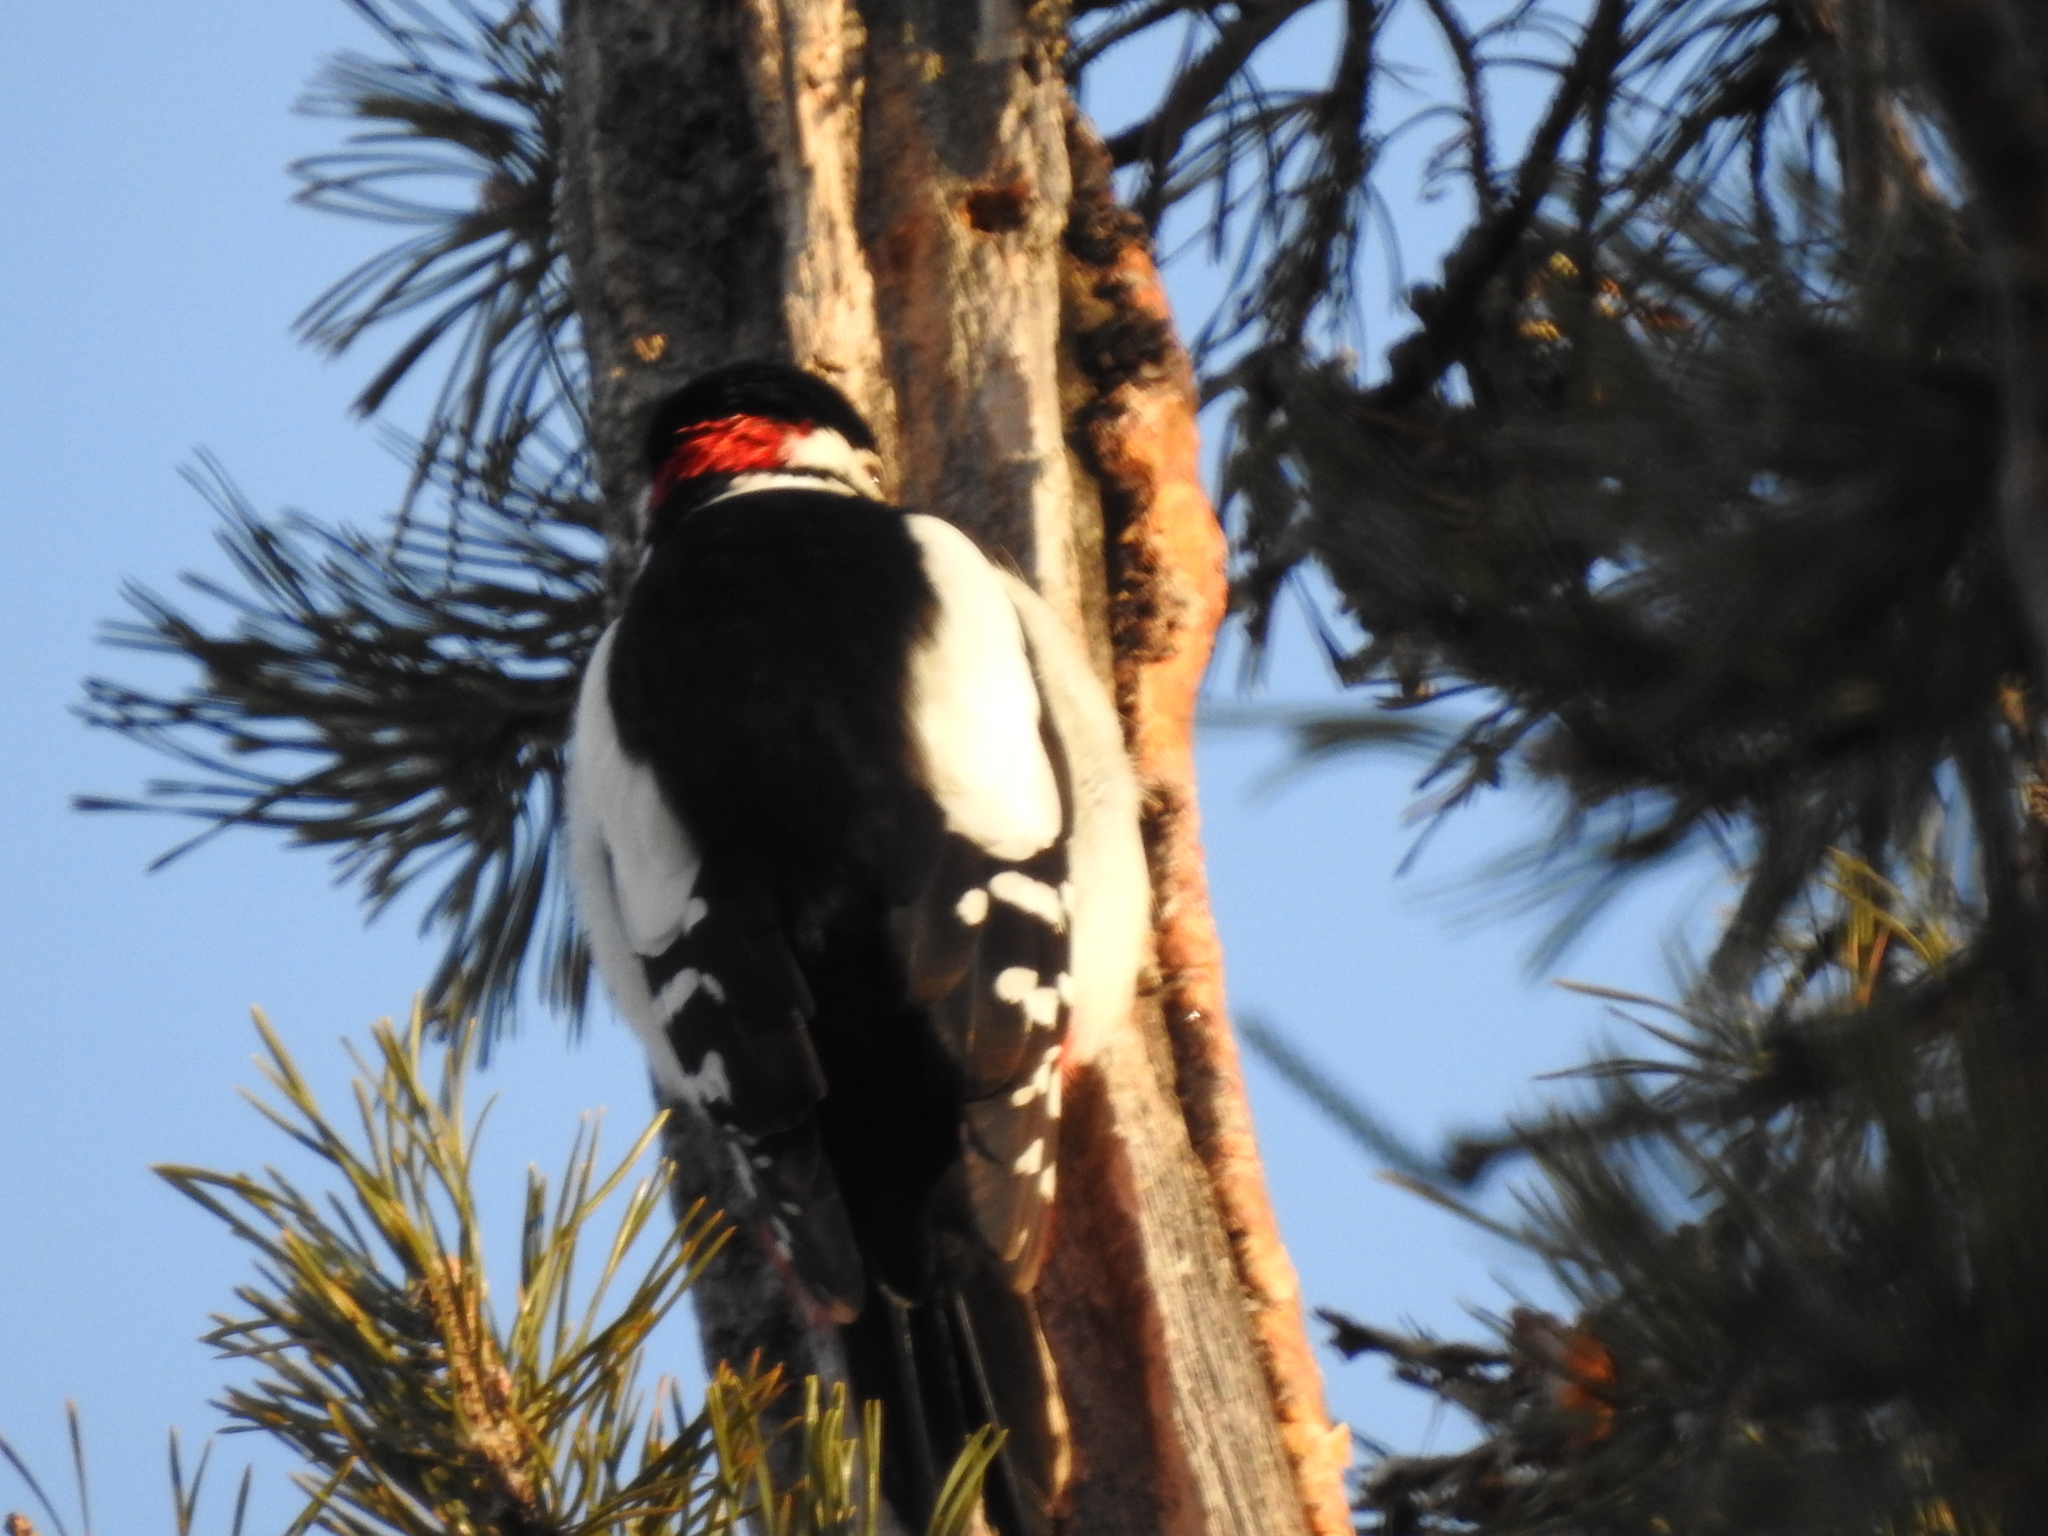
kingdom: Animalia
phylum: Chordata
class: Aves
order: Piciformes
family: Picidae
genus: Dendrocopos
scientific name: Dendrocopos major
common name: Great spotted woodpecker
